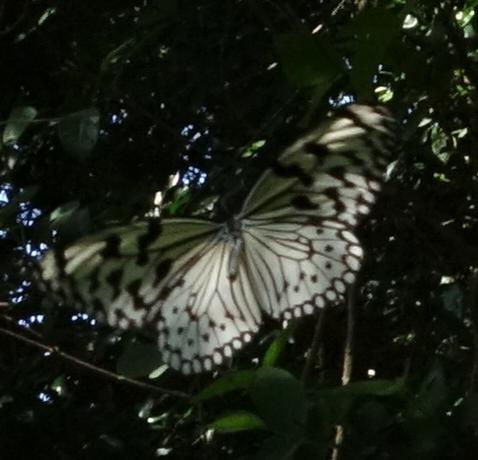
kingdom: Animalia
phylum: Arthropoda
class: Insecta
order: Lepidoptera
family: Nymphalidae
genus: Idea
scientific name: Idea leuconoe
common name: Rice paper butterfly
